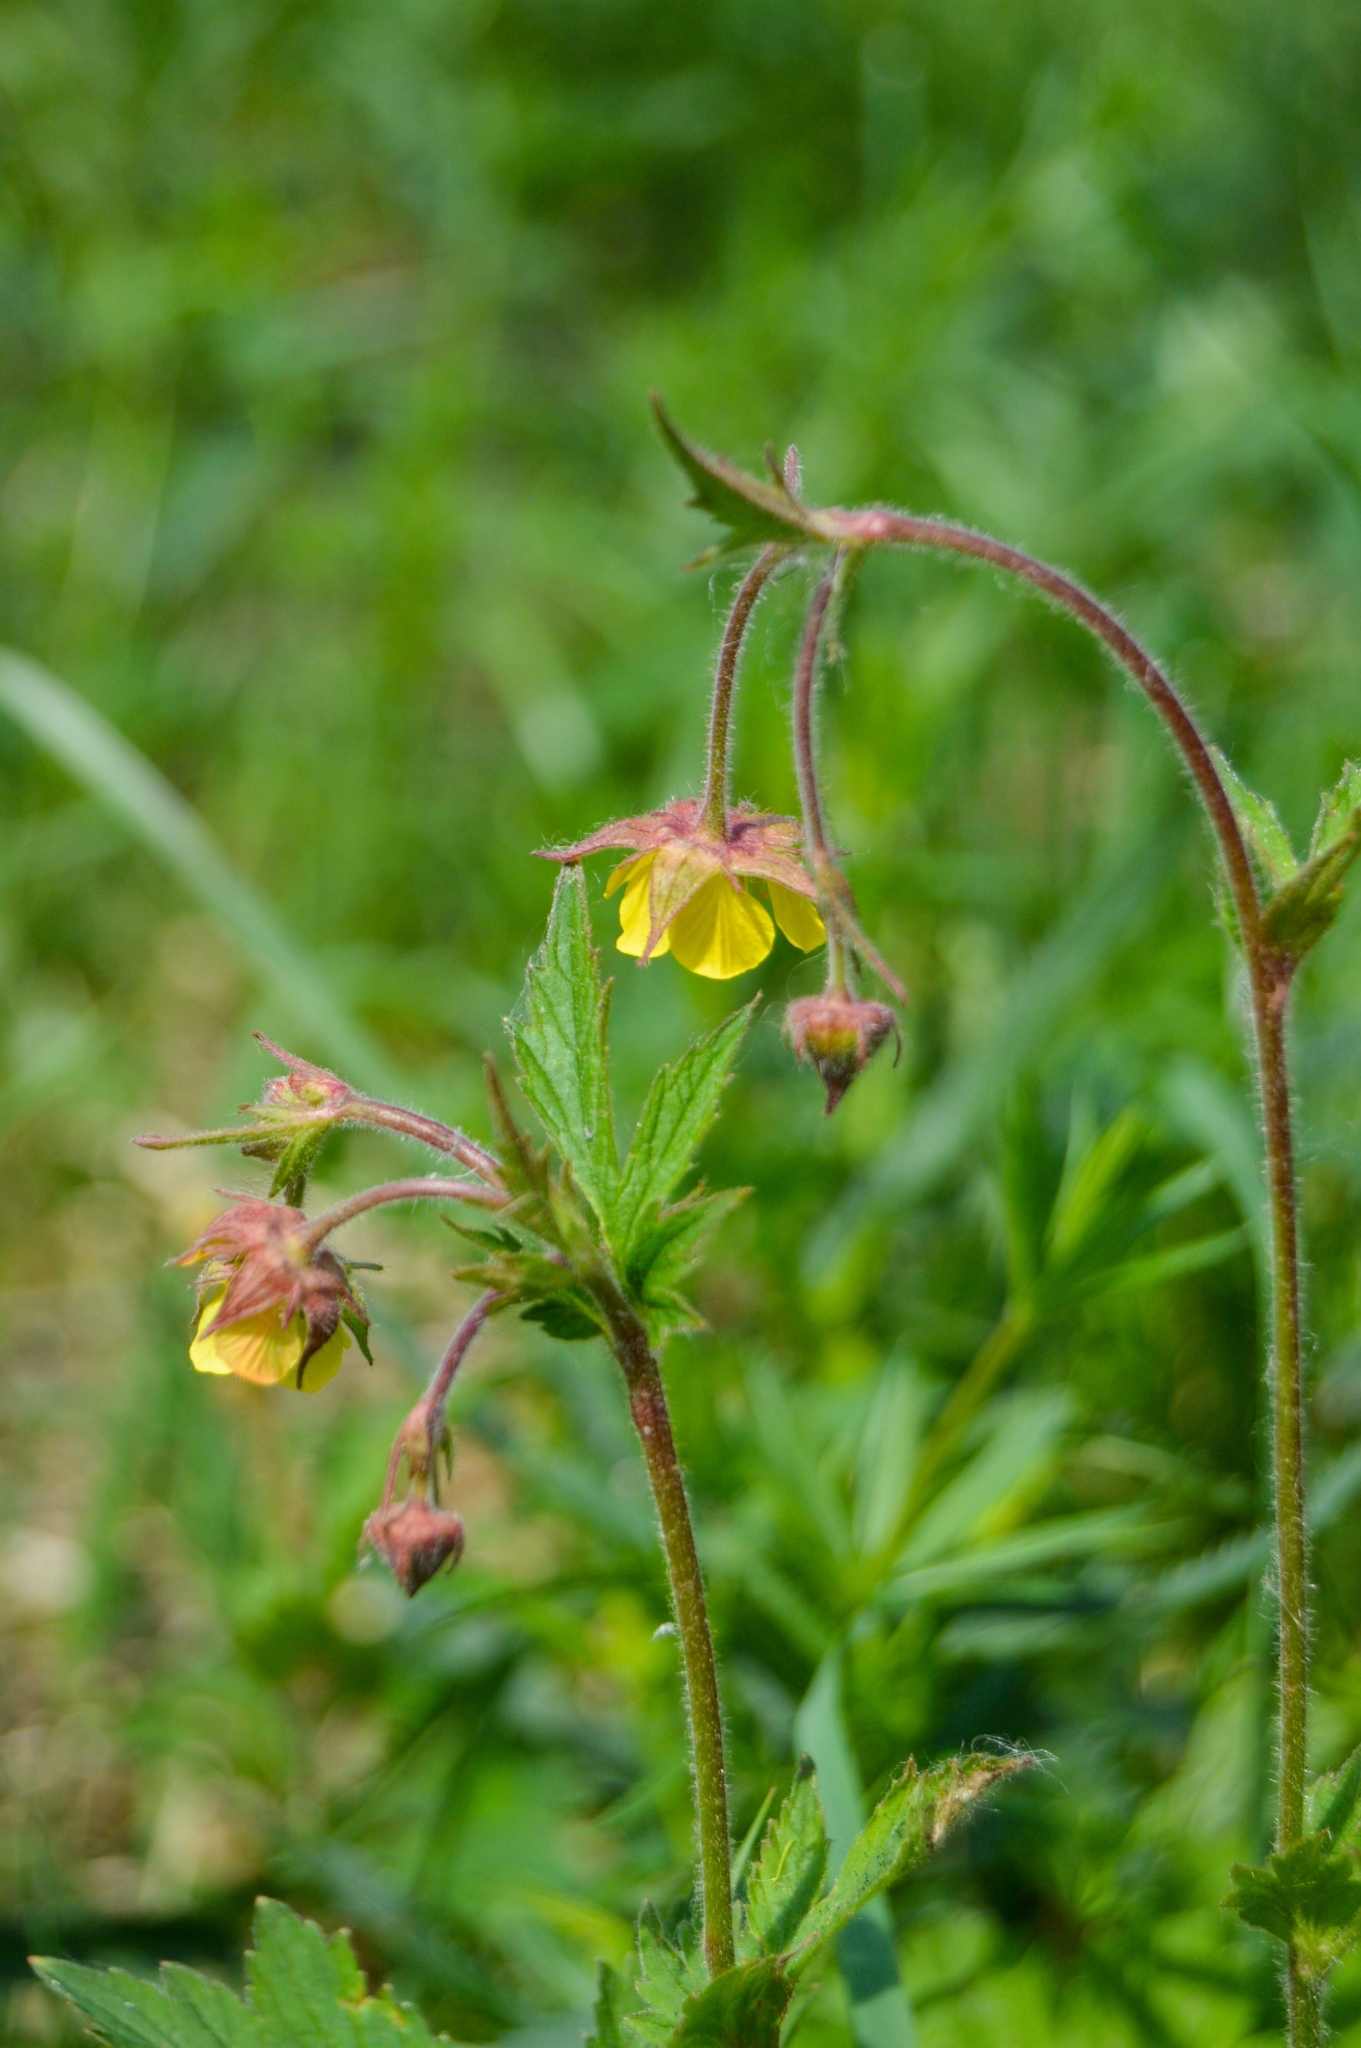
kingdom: Plantae
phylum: Tracheophyta
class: Magnoliopsida
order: Rosales
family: Rosaceae
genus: Geum
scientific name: Geum intermedium
